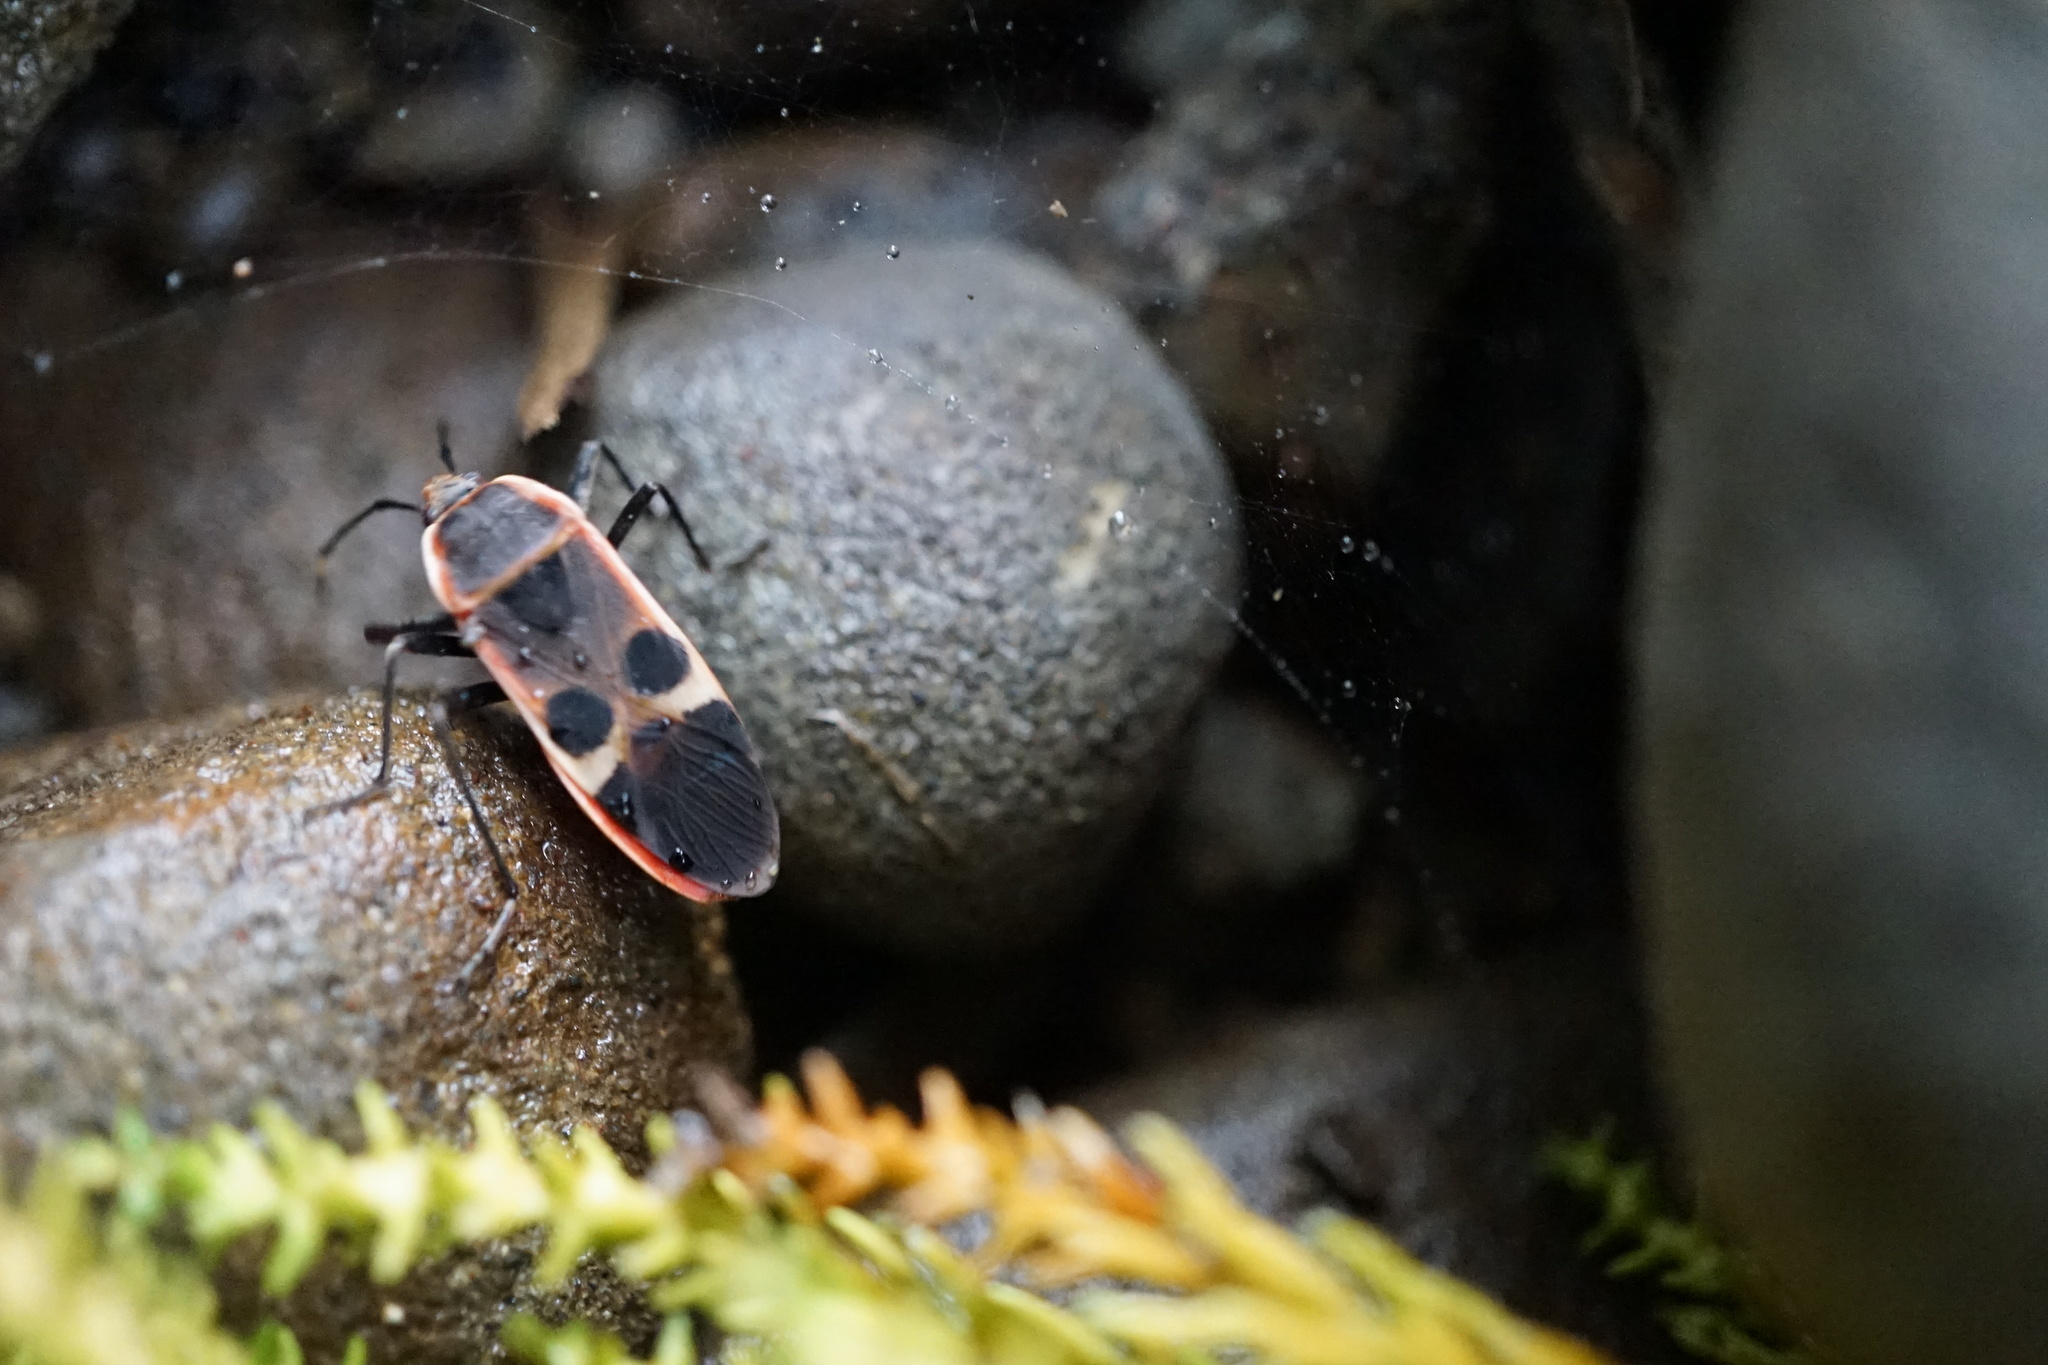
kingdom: Animalia
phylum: Arthropoda
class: Insecta
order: Hemiptera
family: Largidae
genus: Physopelta
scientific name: Physopelta gutta
